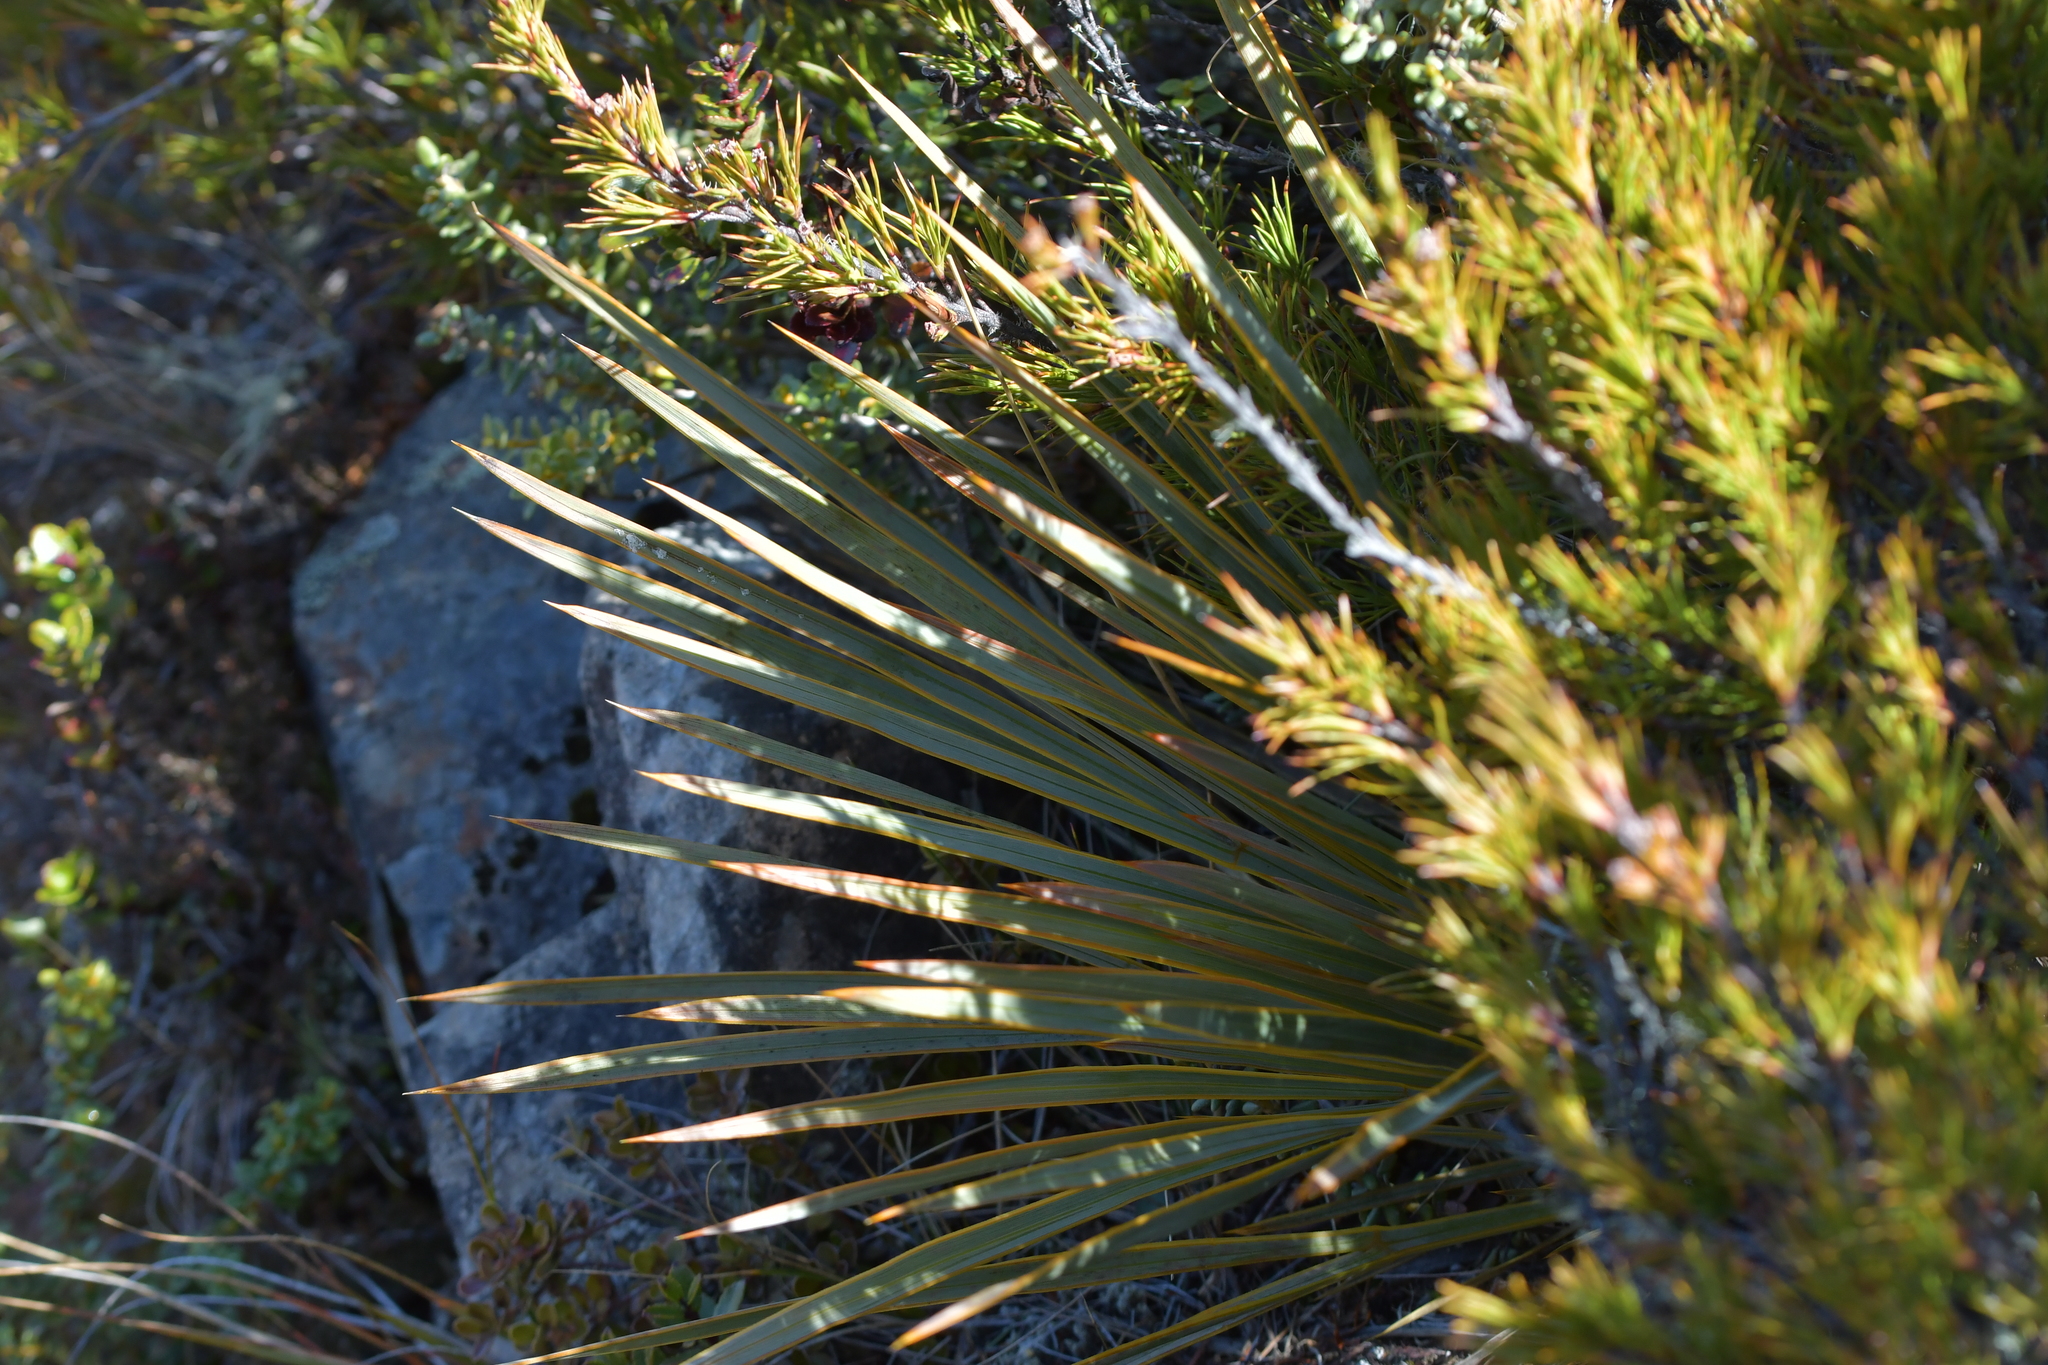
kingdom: Plantae
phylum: Tracheophyta
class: Magnoliopsida
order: Apiales
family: Apiaceae
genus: Aciphylla
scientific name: Aciphylla aurea
